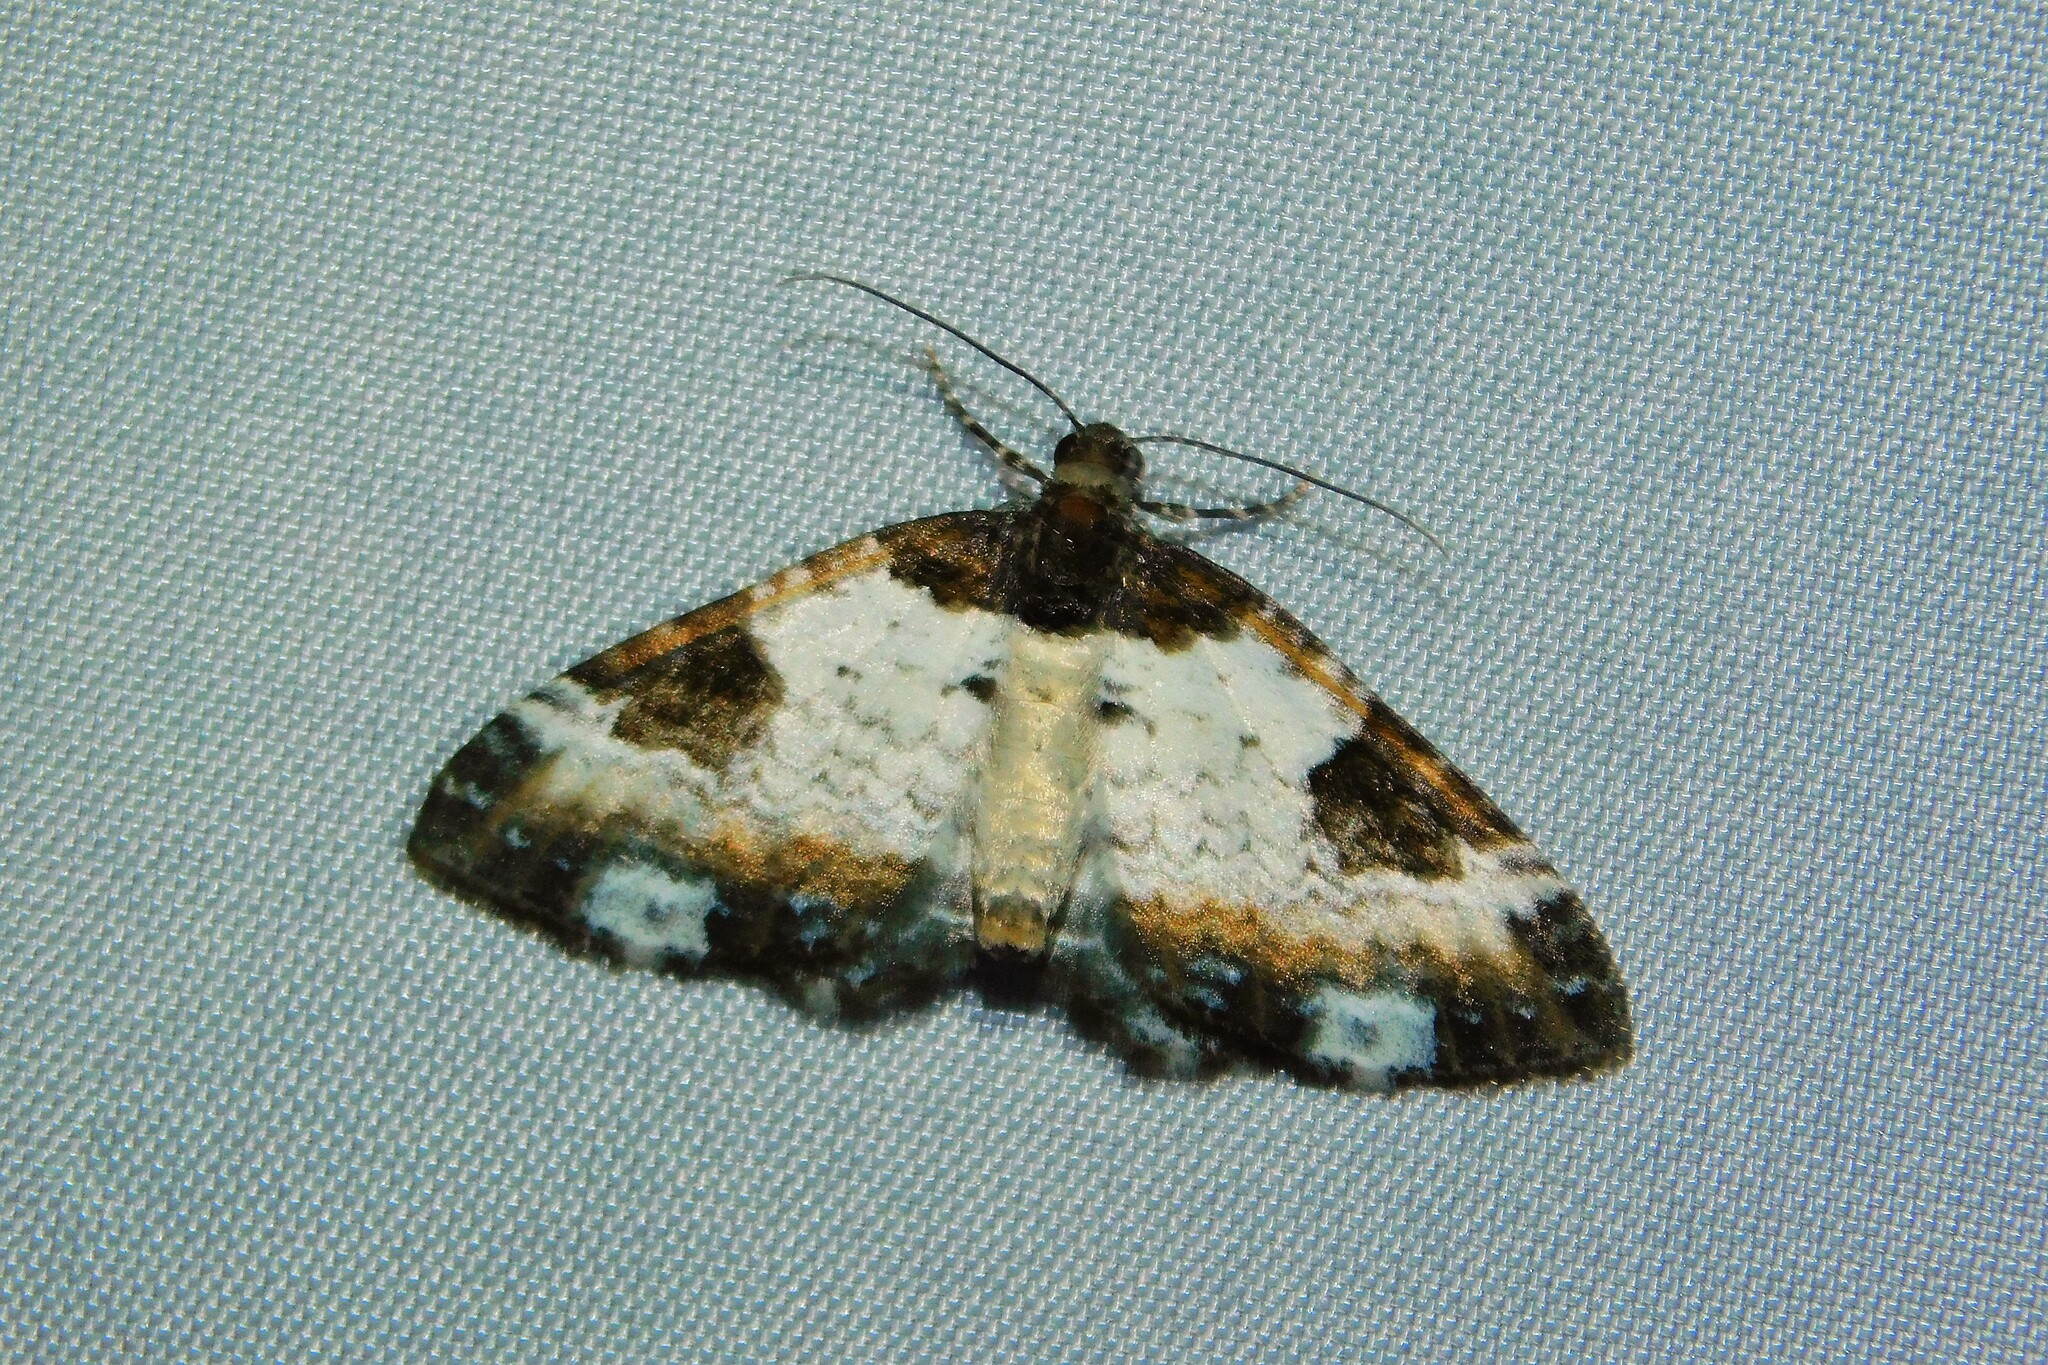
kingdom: Animalia
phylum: Arthropoda
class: Insecta
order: Lepidoptera
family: Geometridae
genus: Melanthia
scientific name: Melanthia procellata
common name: Pretty chalk carpet
